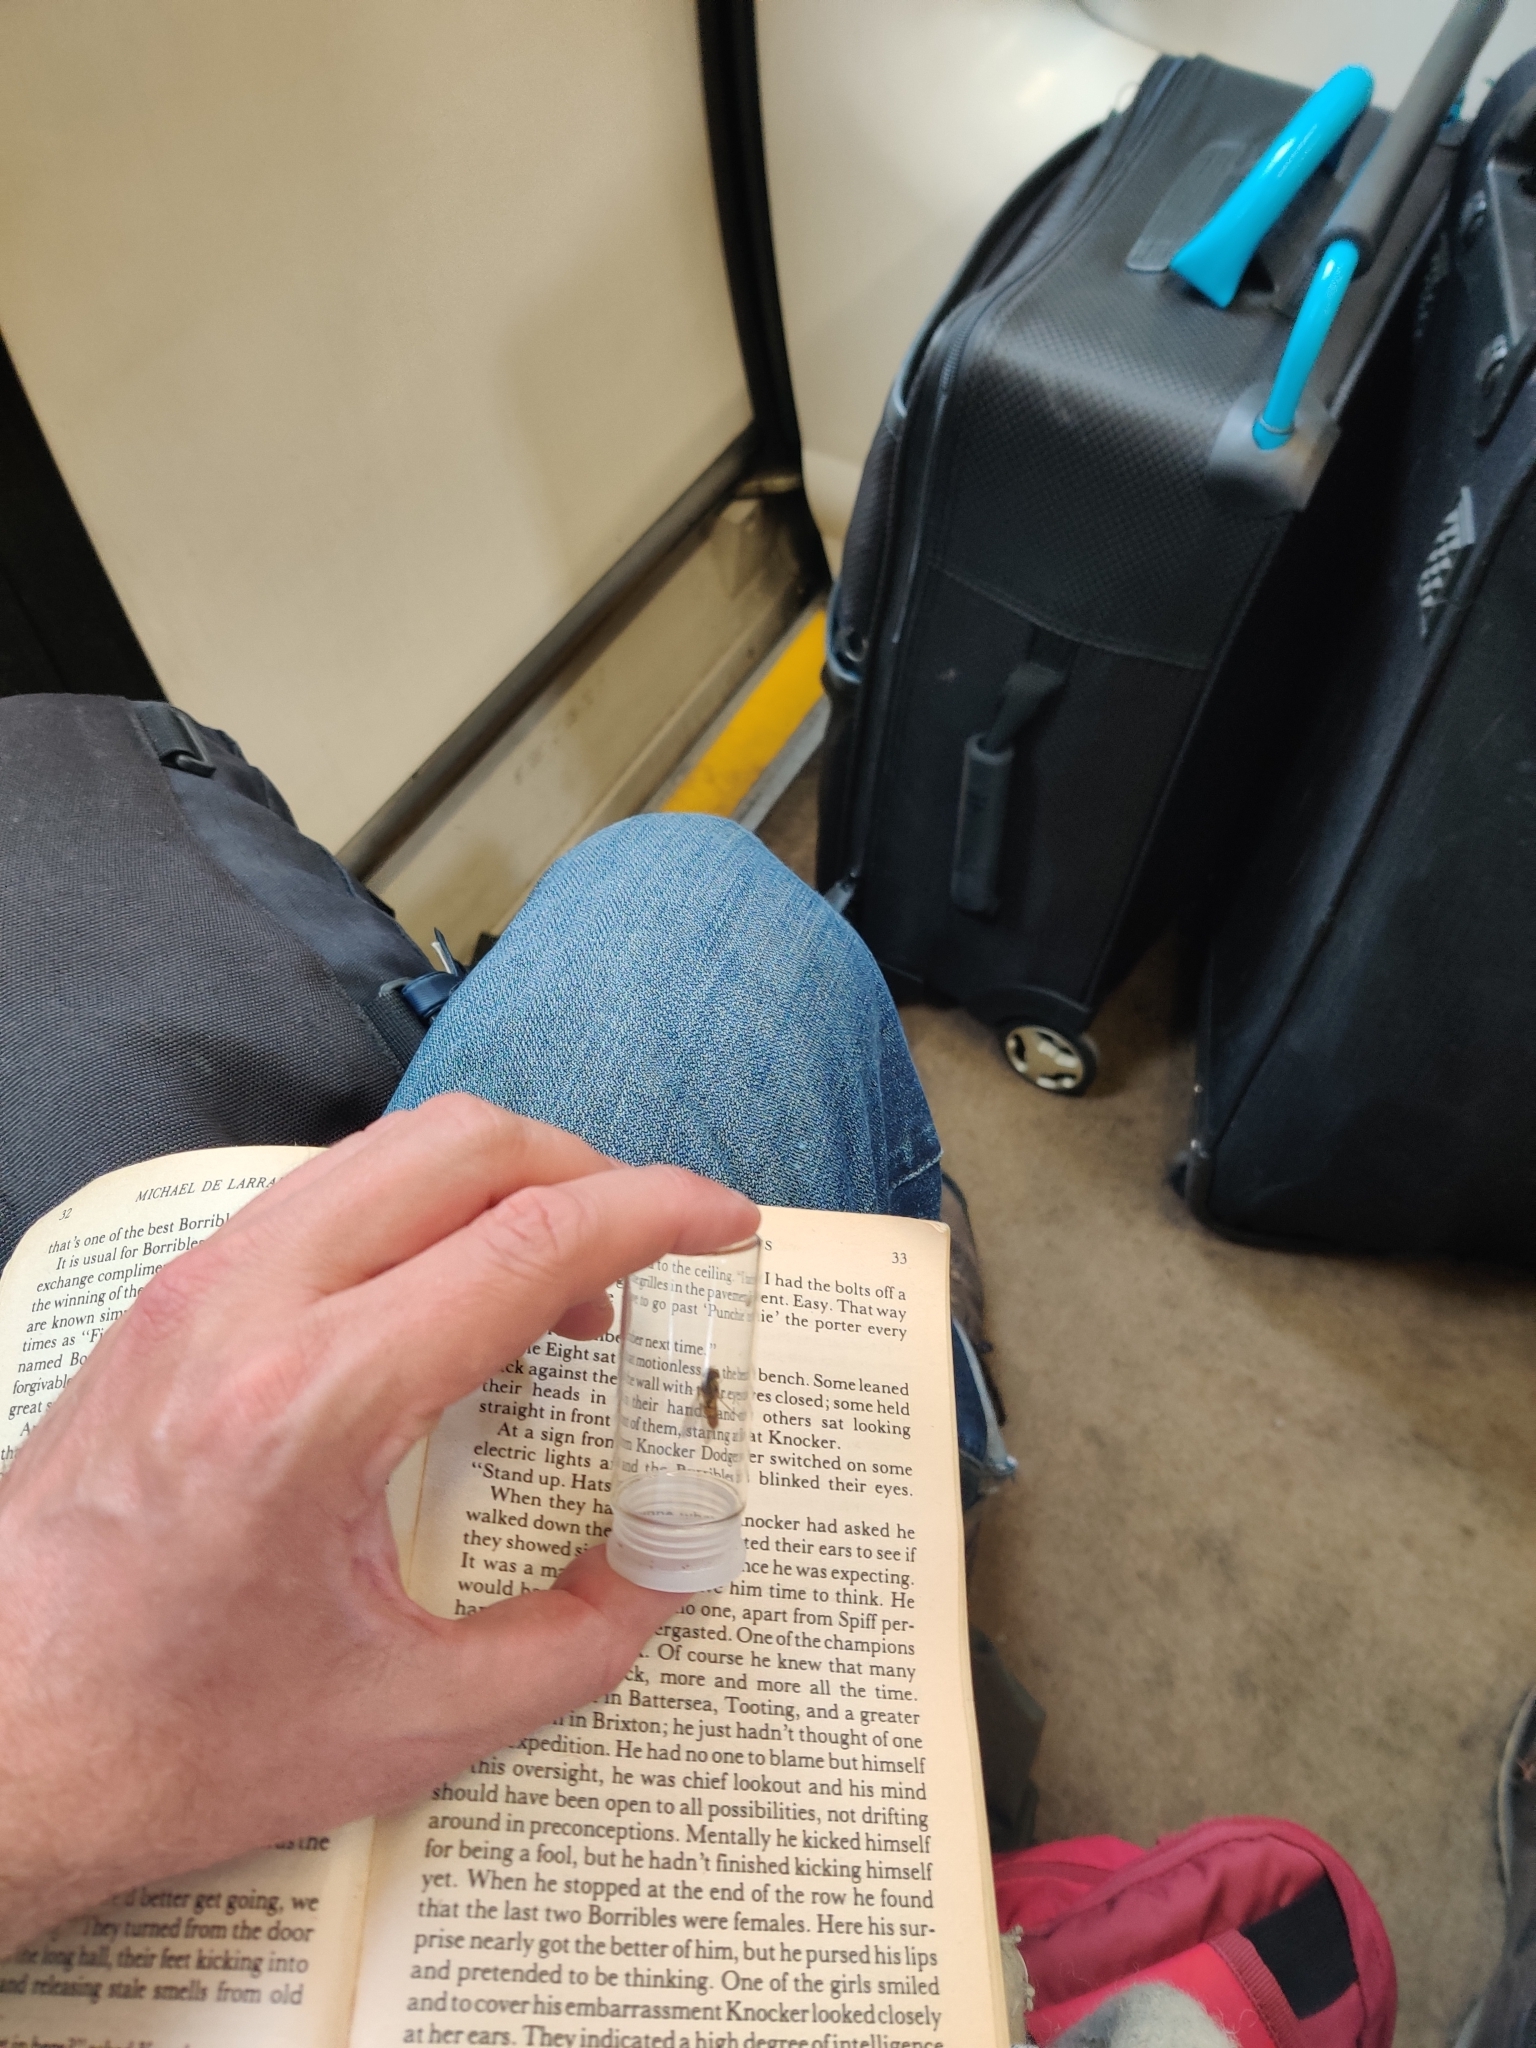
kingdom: Animalia
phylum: Arthropoda
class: Insecta
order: Diptera
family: Syrphidae
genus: Episyrphus
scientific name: Episyrphus balteatus
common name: Marmalade hoverfly
